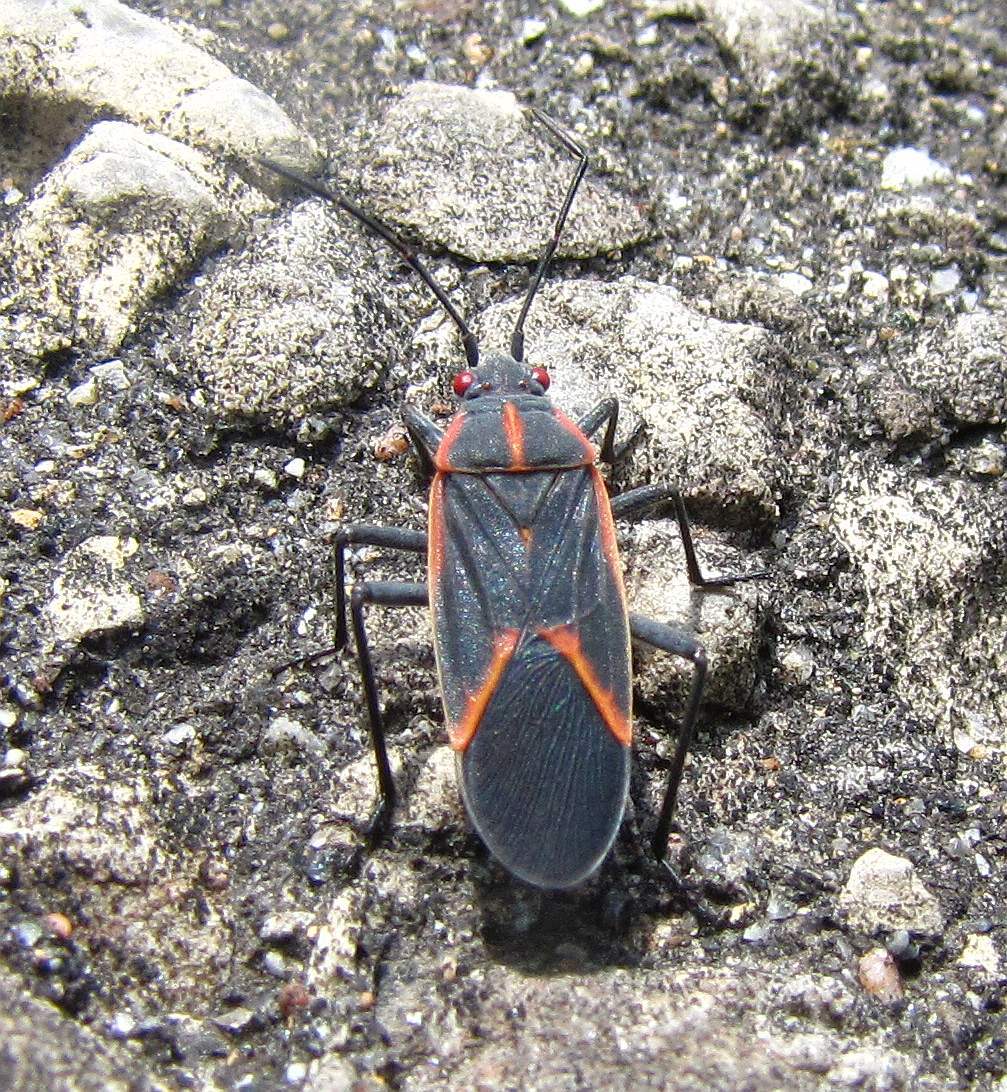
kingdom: Animalia
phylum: Arthropoda
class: Insecta
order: Hemiptera
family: Rhopalidae
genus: Boisea
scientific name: Boisea trivittata
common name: Boxelder bug
